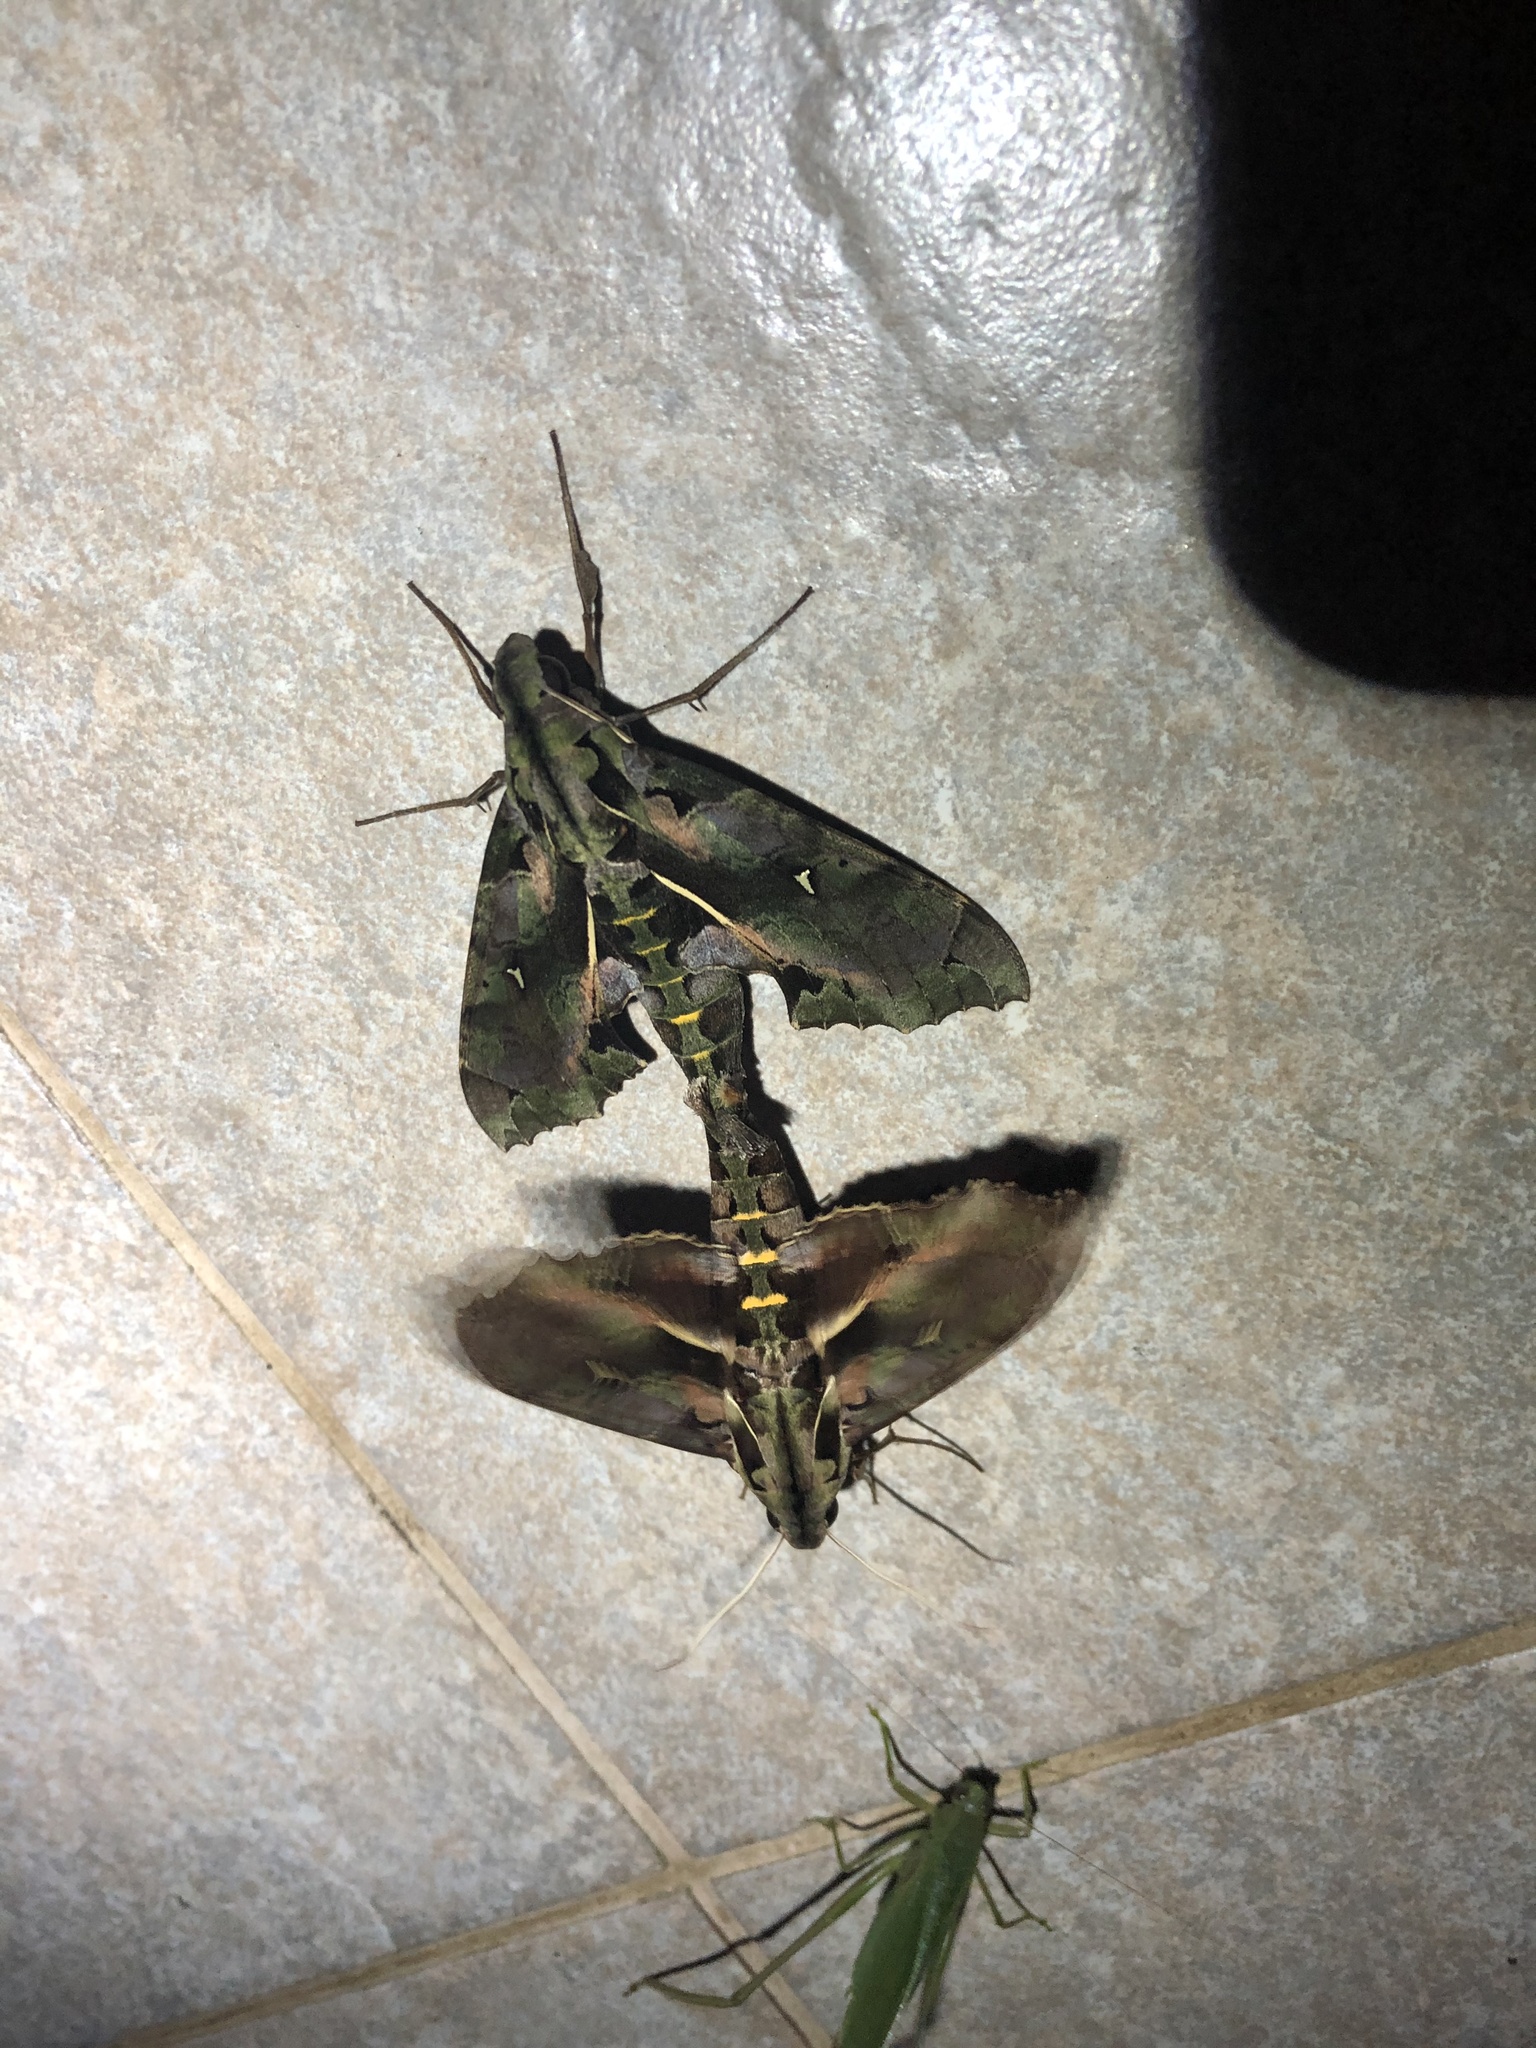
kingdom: Animalia
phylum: Arthropoda
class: Insecta
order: Lepidoptera
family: Sphingidae
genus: Hemeroplanes
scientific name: Hemeroplanes triptolemus
